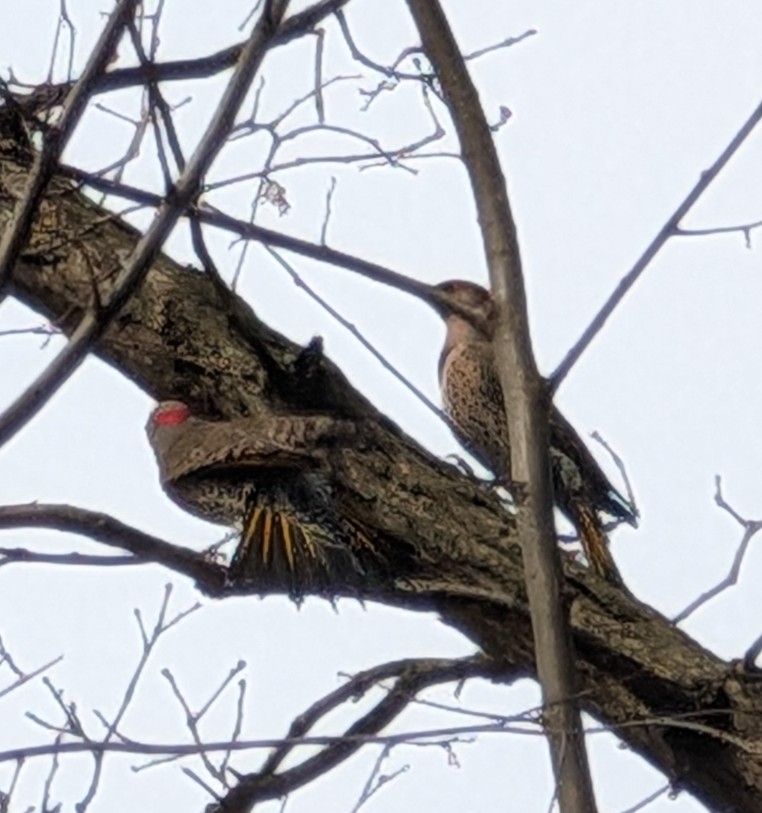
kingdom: Animalia
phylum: Chordata
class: Aves
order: Piciformes
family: Picidae
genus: Colaptes
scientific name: Colaptes auratus
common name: Northern flicker
